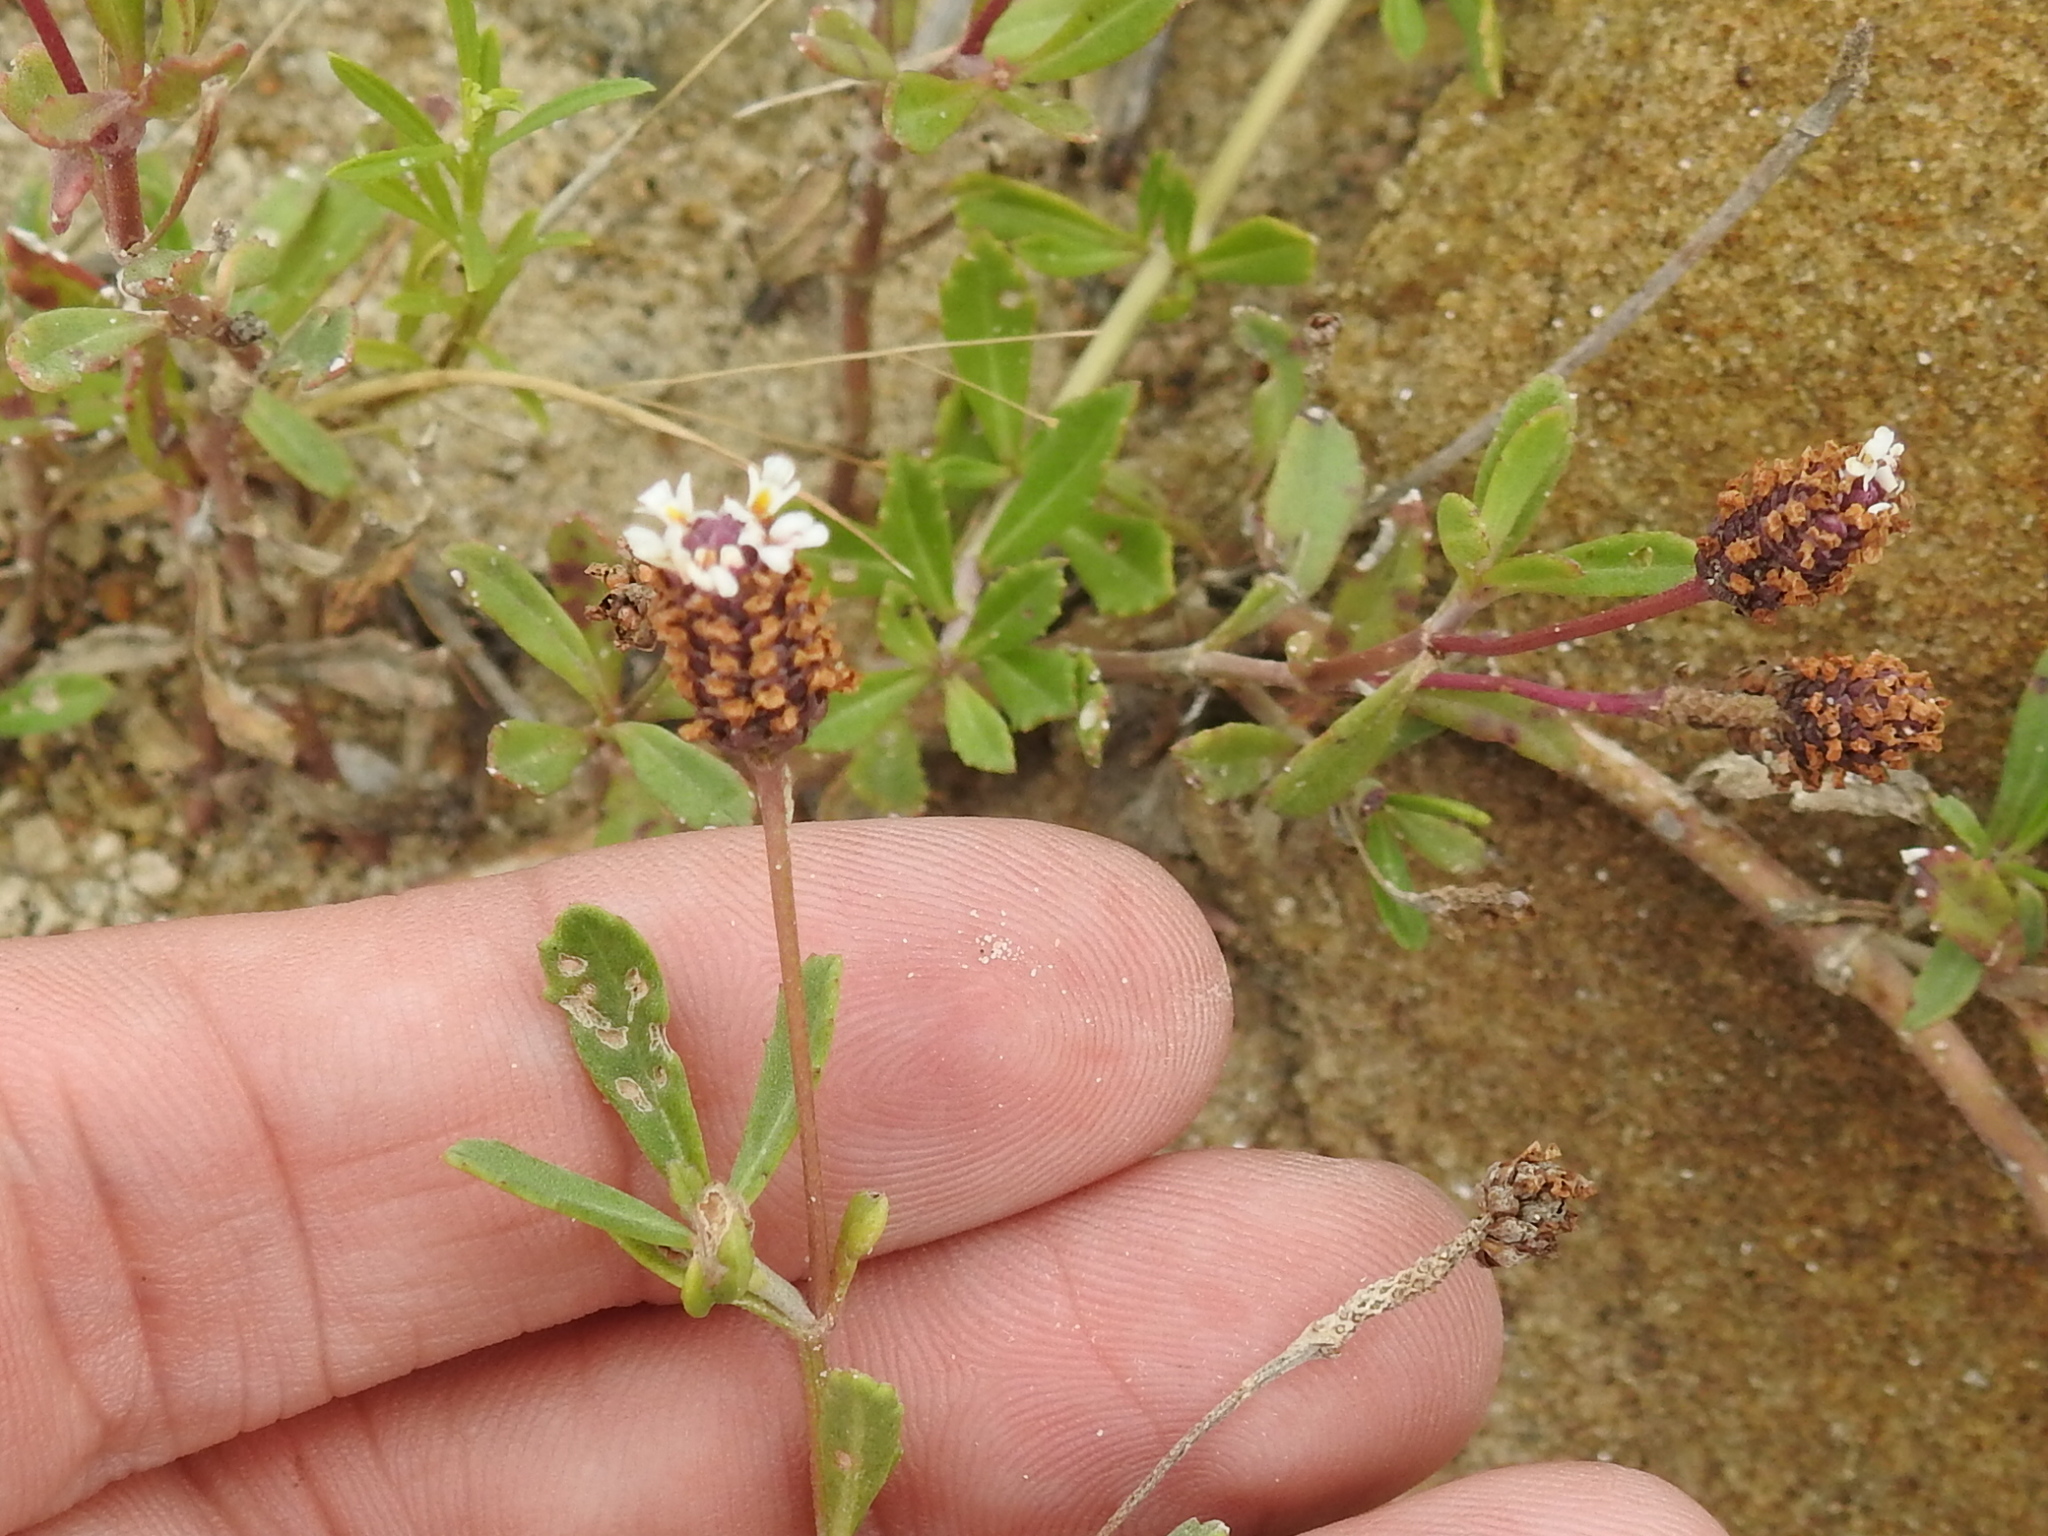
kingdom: Plantae
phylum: Tracheophyta
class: Magnoliopsida
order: Lamiales
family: Verbenaceae
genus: Phyla
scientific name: Phyla nodiflora
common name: Frogfruit
